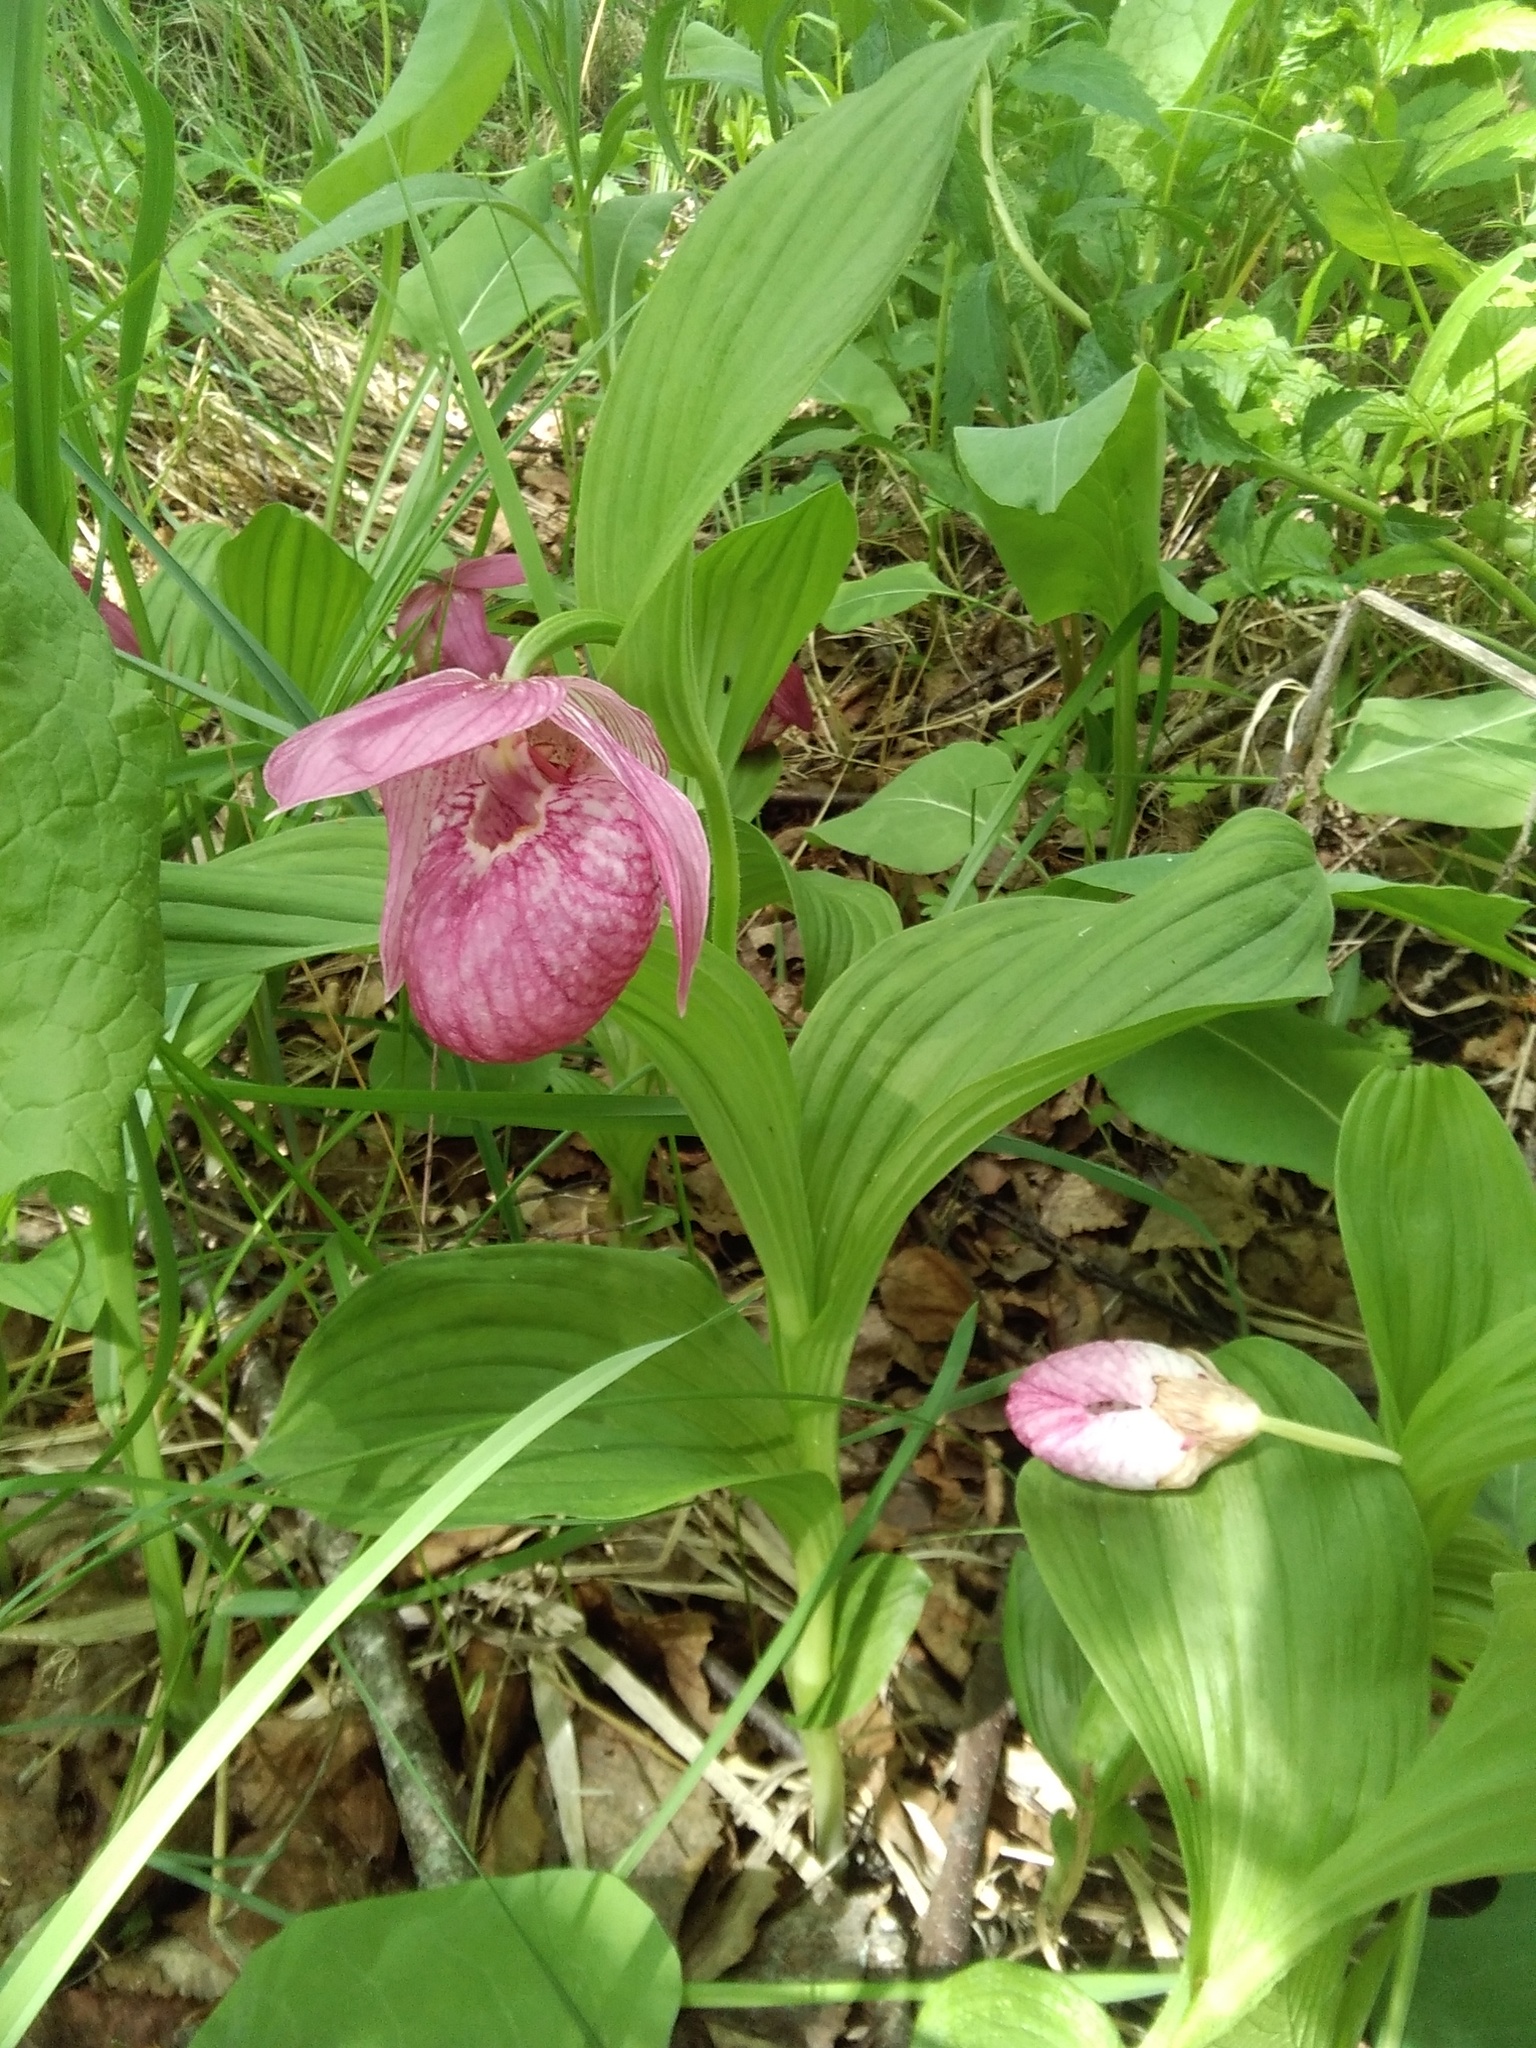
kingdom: Plantae
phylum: Tracheophyta
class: Liliopsida
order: Asparagales
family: Orchidaceae
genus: Cypripedium
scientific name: Cypripedium macranthos
